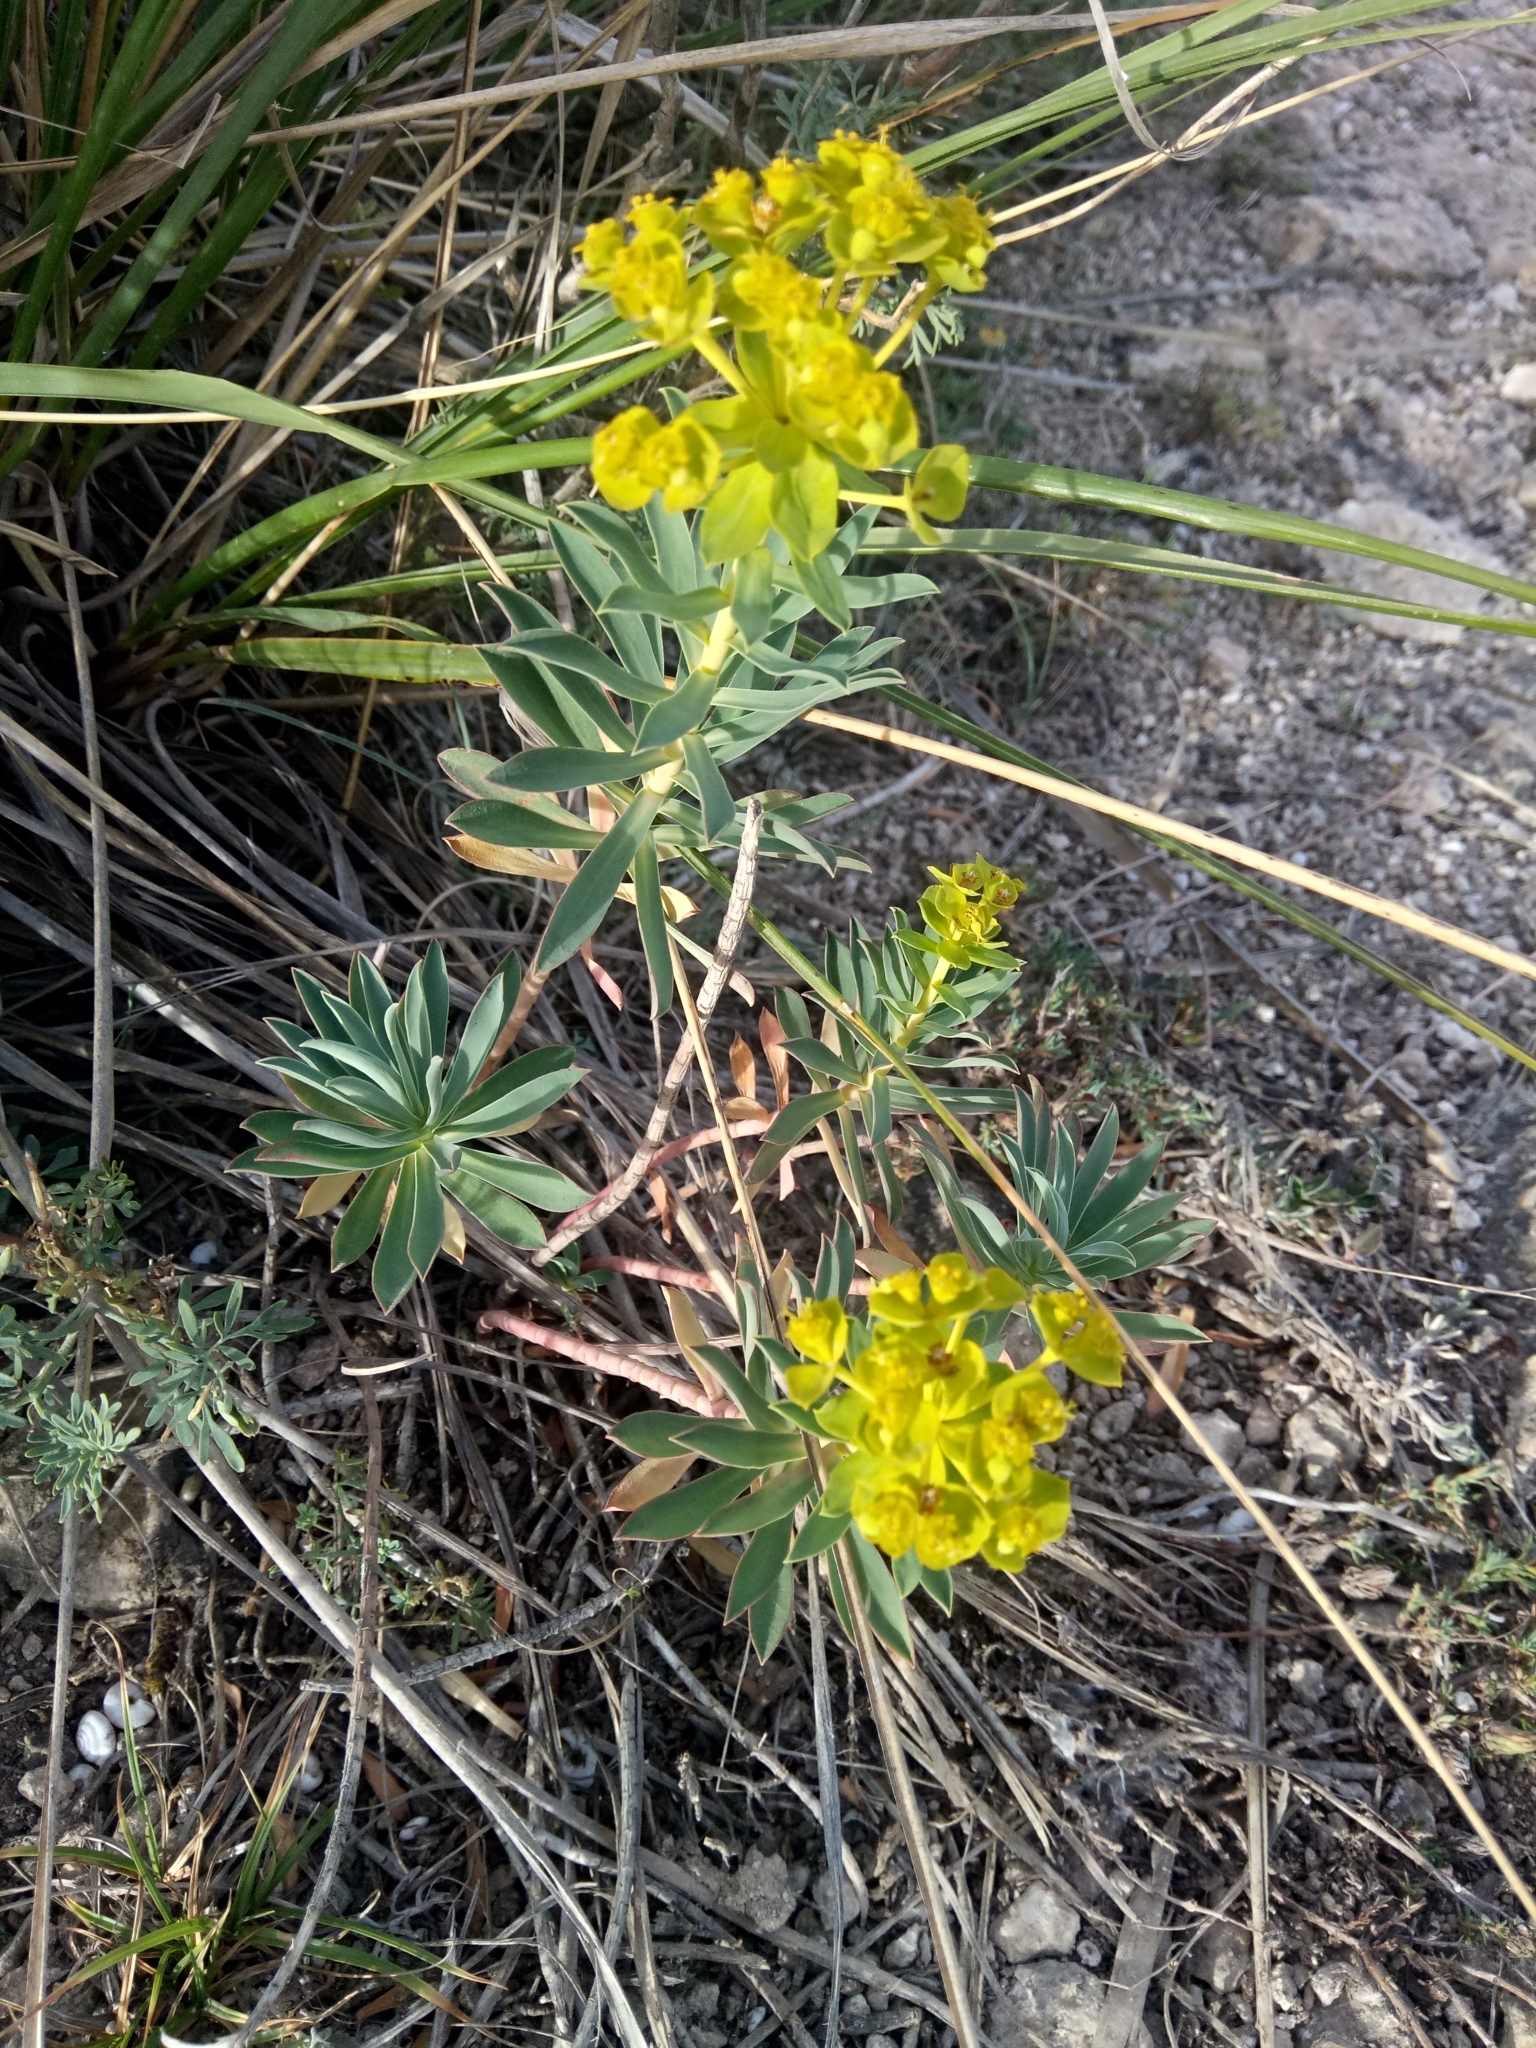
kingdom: Plantae
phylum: Tracheophyta
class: Magnoliopsida
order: Malpighiales
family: Euphorbiaceae
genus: Euphorbia
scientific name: Euphorbia nicaeensis
